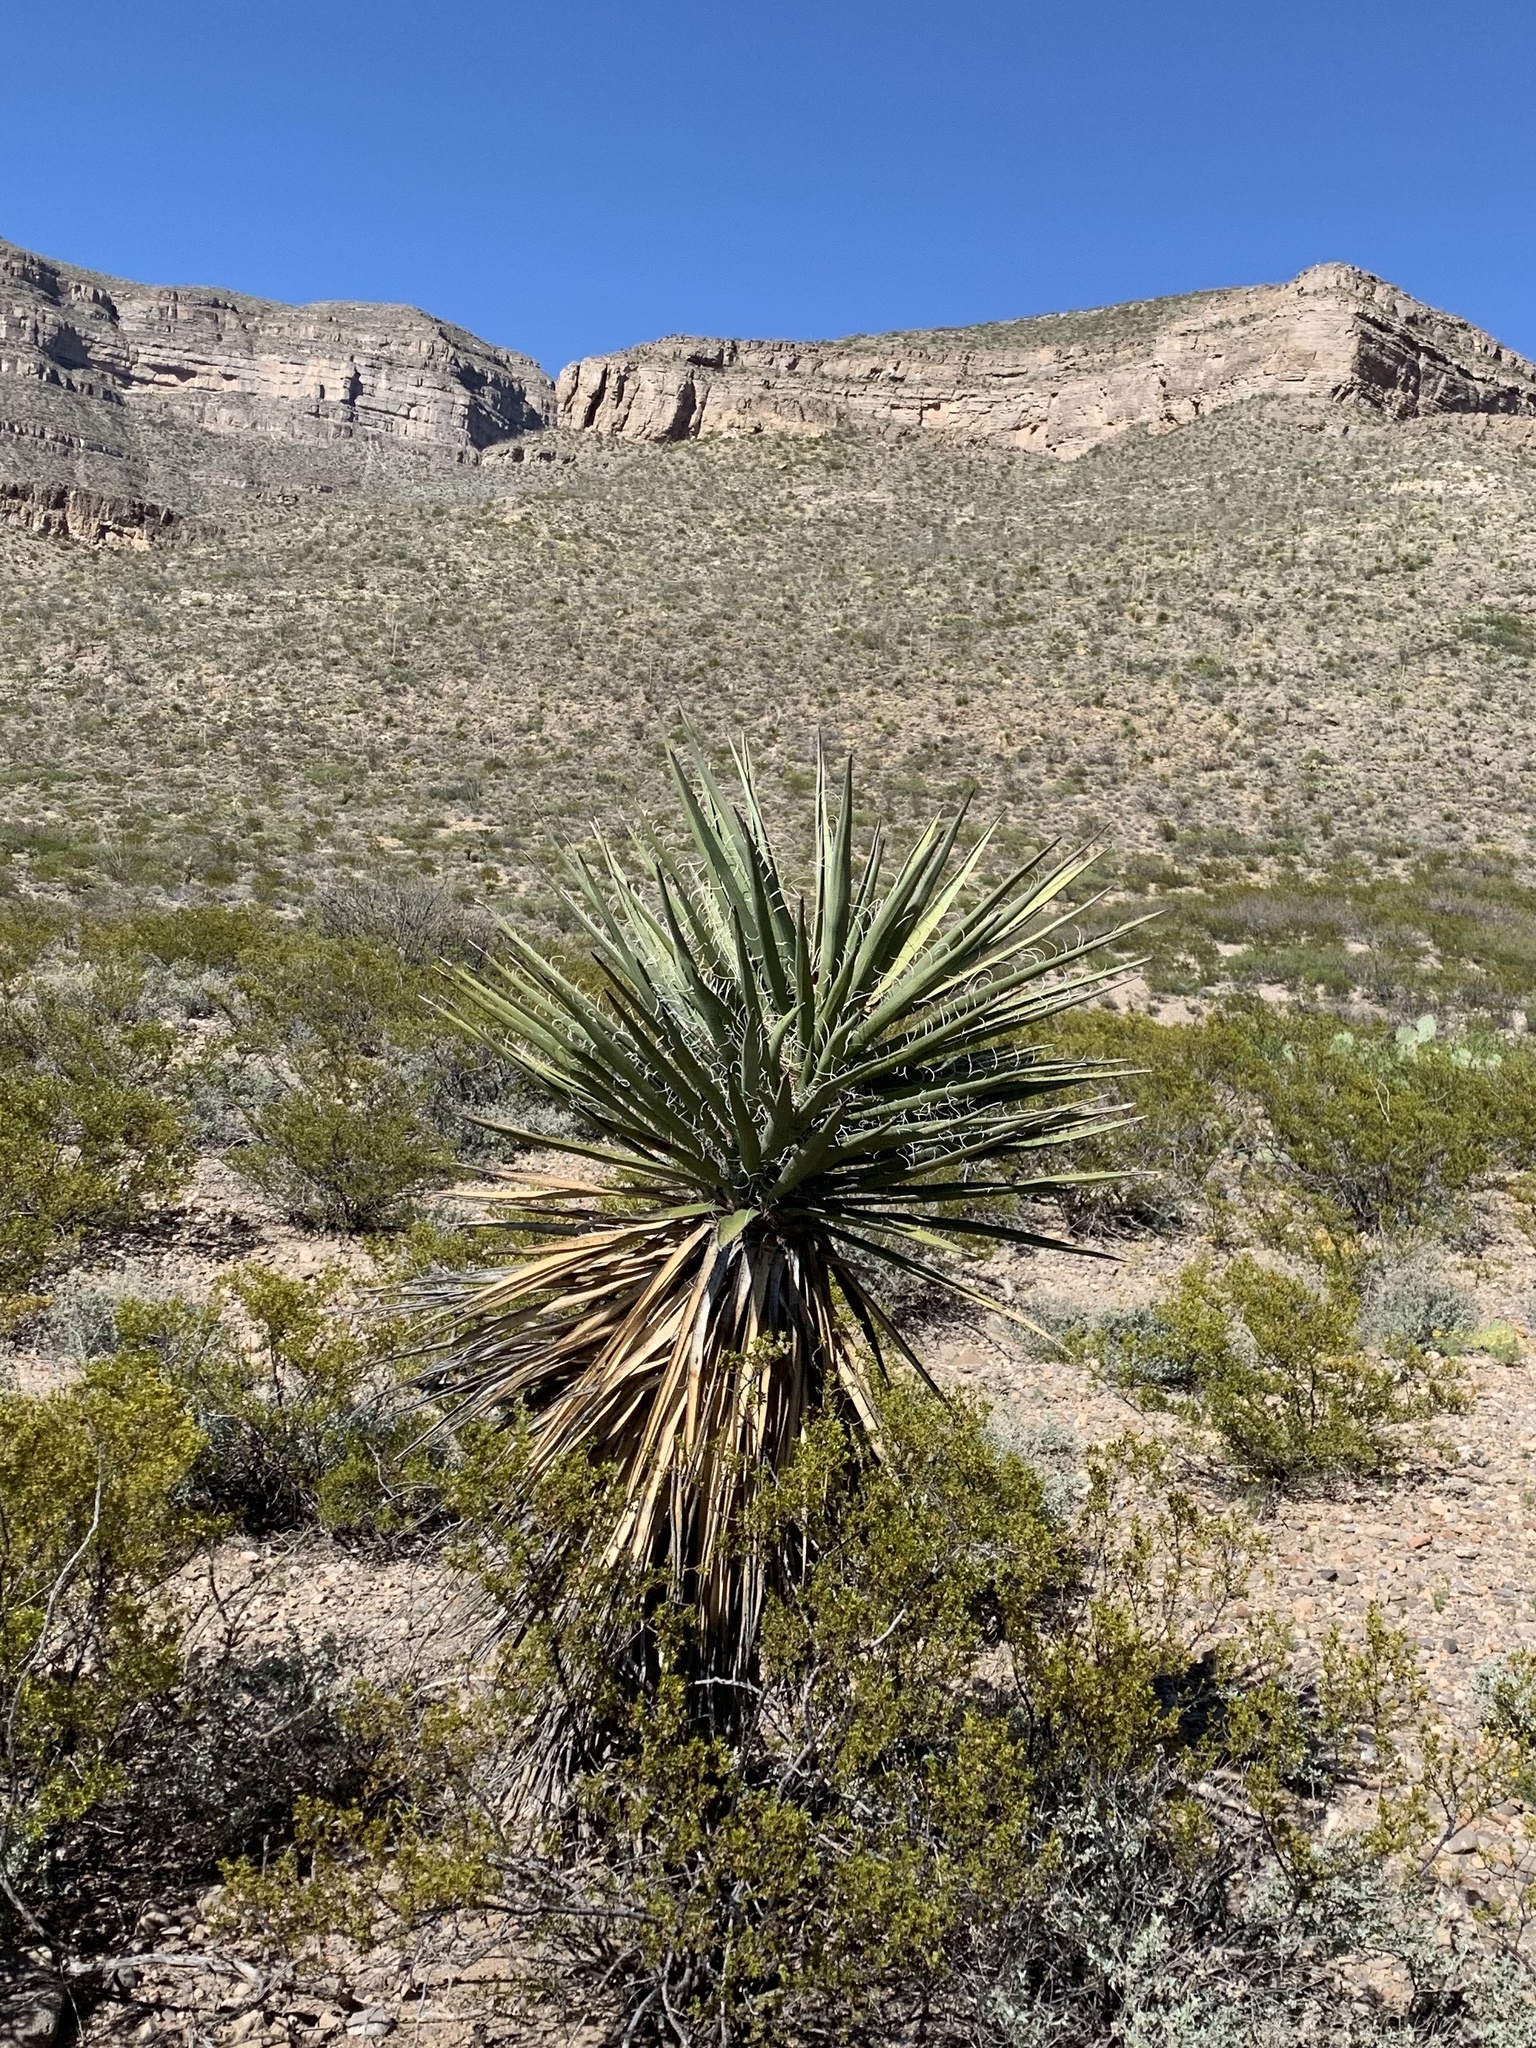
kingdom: Plantae
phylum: Tracheophyta
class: Liliopsida
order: Asparagales
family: Asparagaceae
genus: Yucca
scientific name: Yucca treculiana
